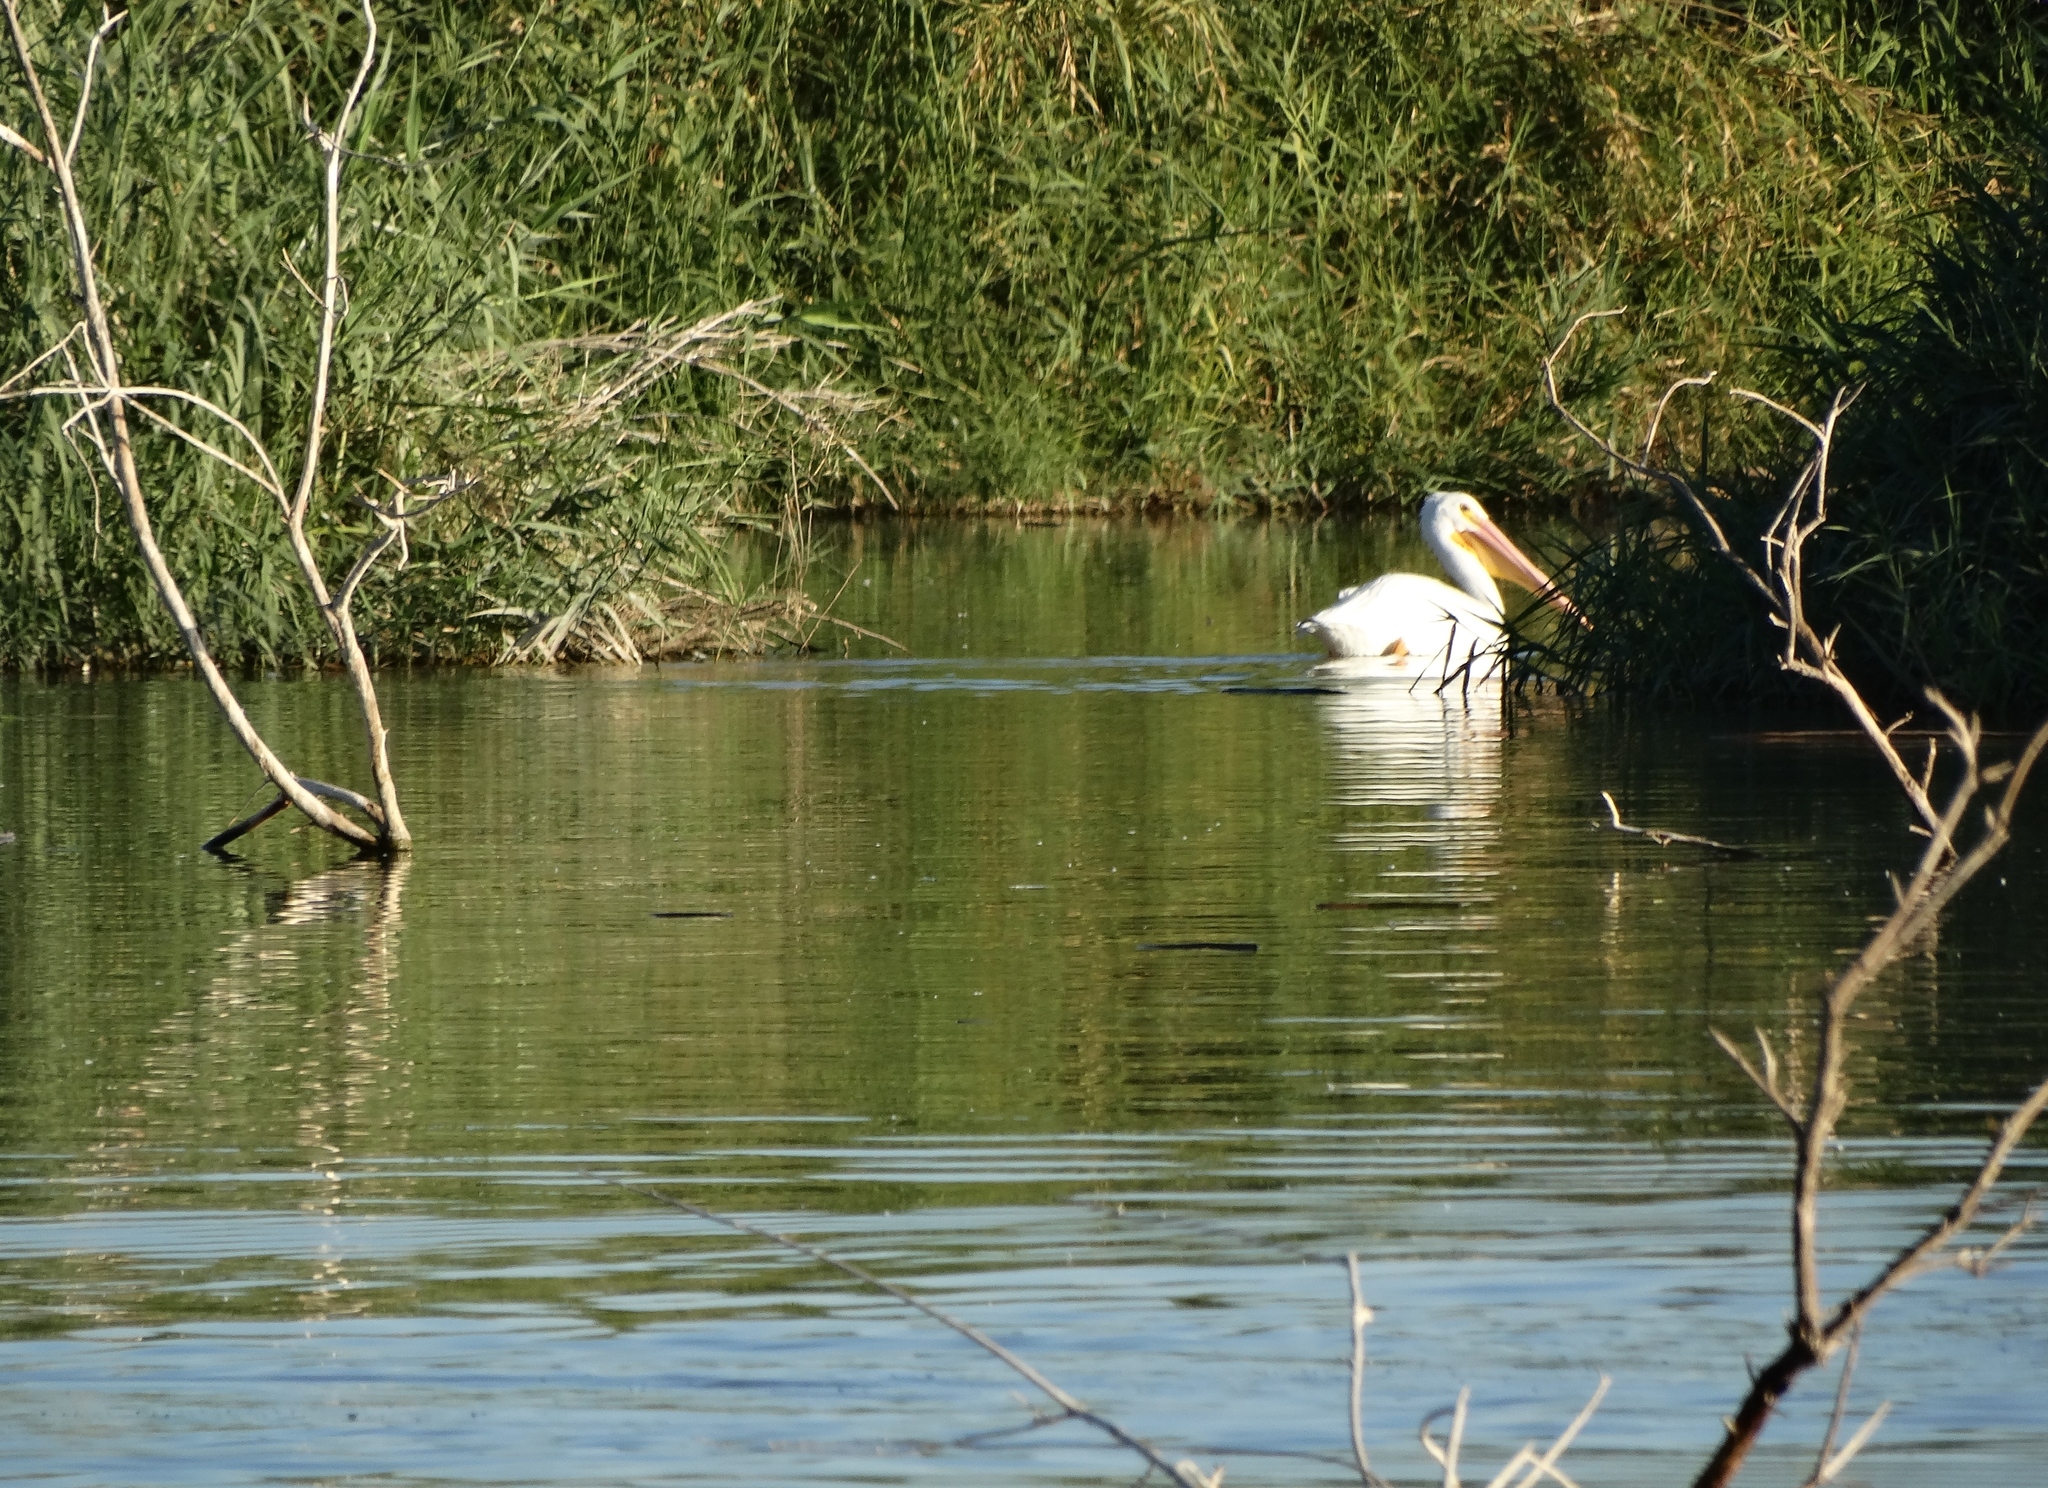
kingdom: Animalia
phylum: Chordata
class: Aves
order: Pelecaniformes
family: Pelecanidae
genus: Pelecanus
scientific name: Pelecanus erythrorhynchos
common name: American white pelican
